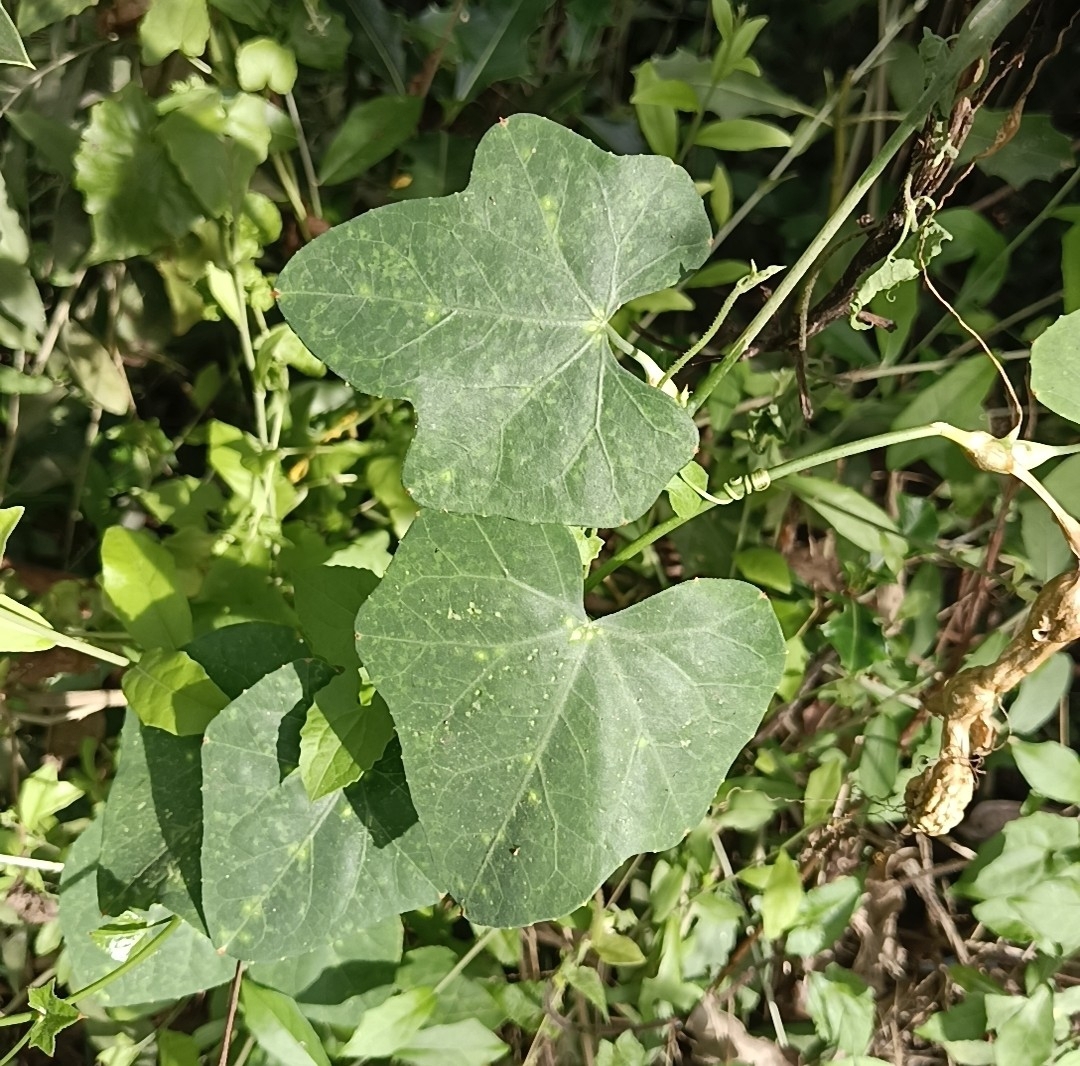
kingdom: Plantae
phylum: Tracheophyta
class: Magnoliopsida
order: Cucurbitales
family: Cucurbitaceae
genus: Coccinia
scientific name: Coccinia grandis
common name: Ivy gourd
